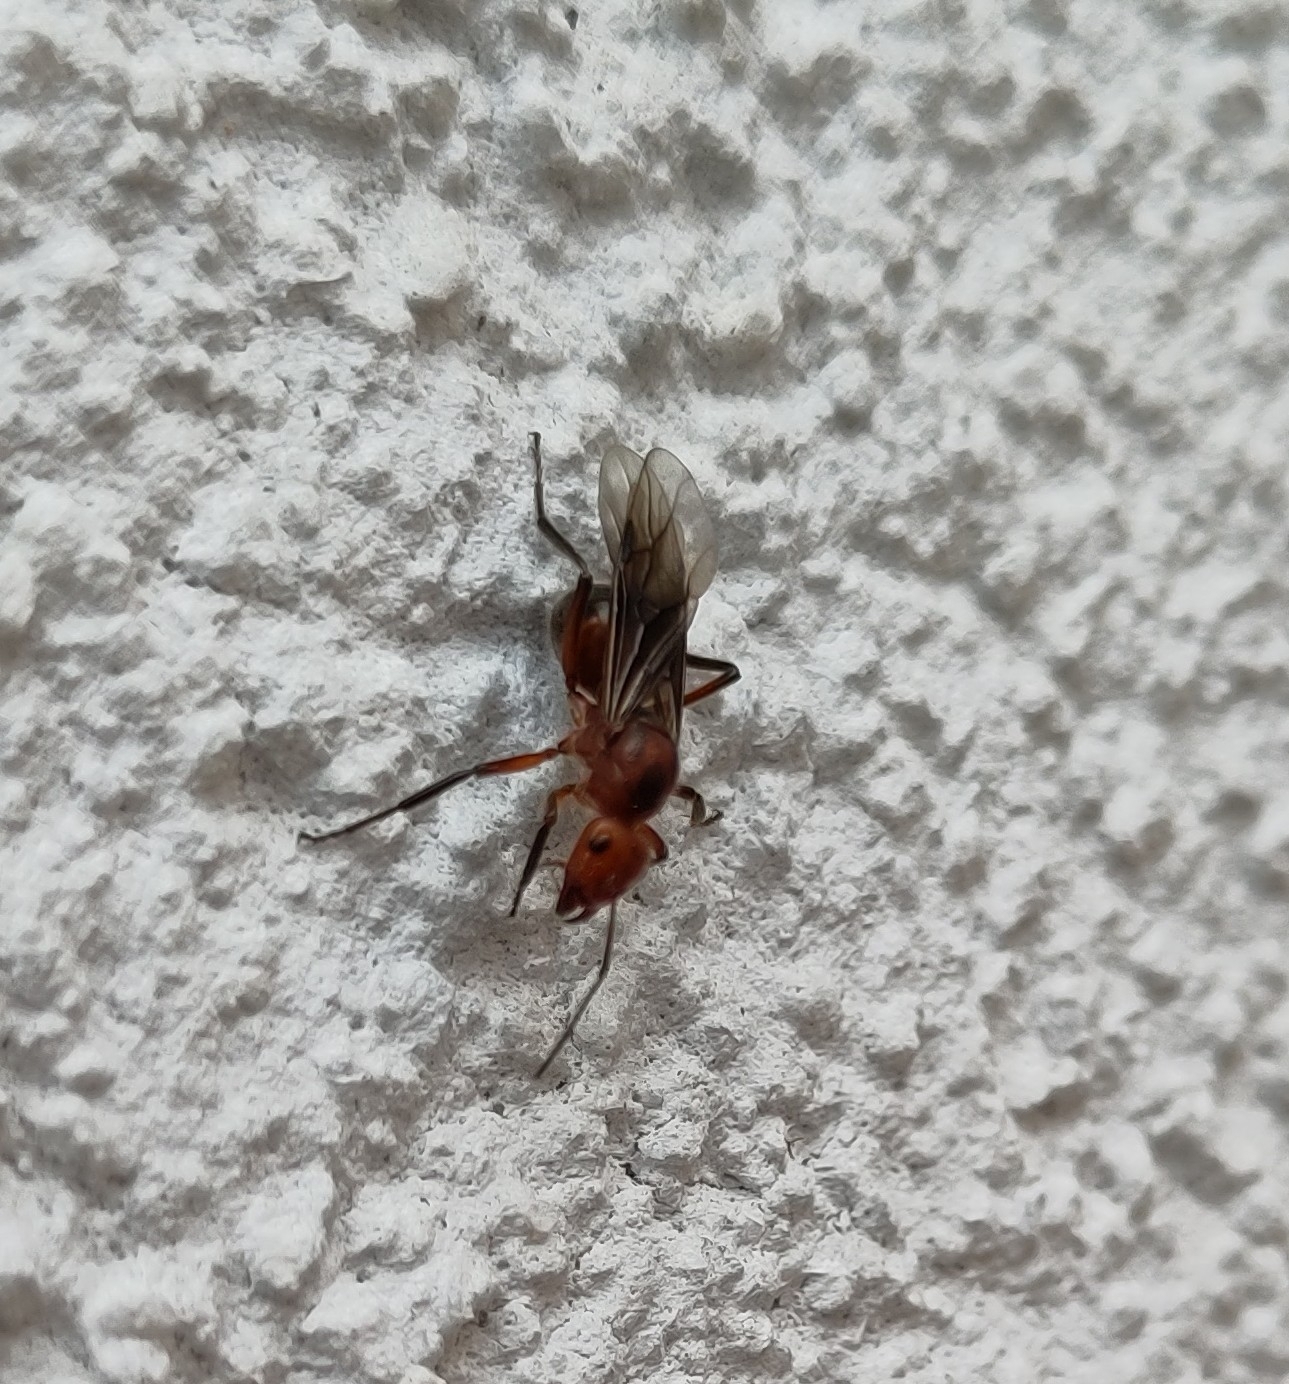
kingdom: Animalia
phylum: Arthropoda
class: Insecta
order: Hymenoptera
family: Formicidae
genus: Formica
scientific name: Formica truncorum
